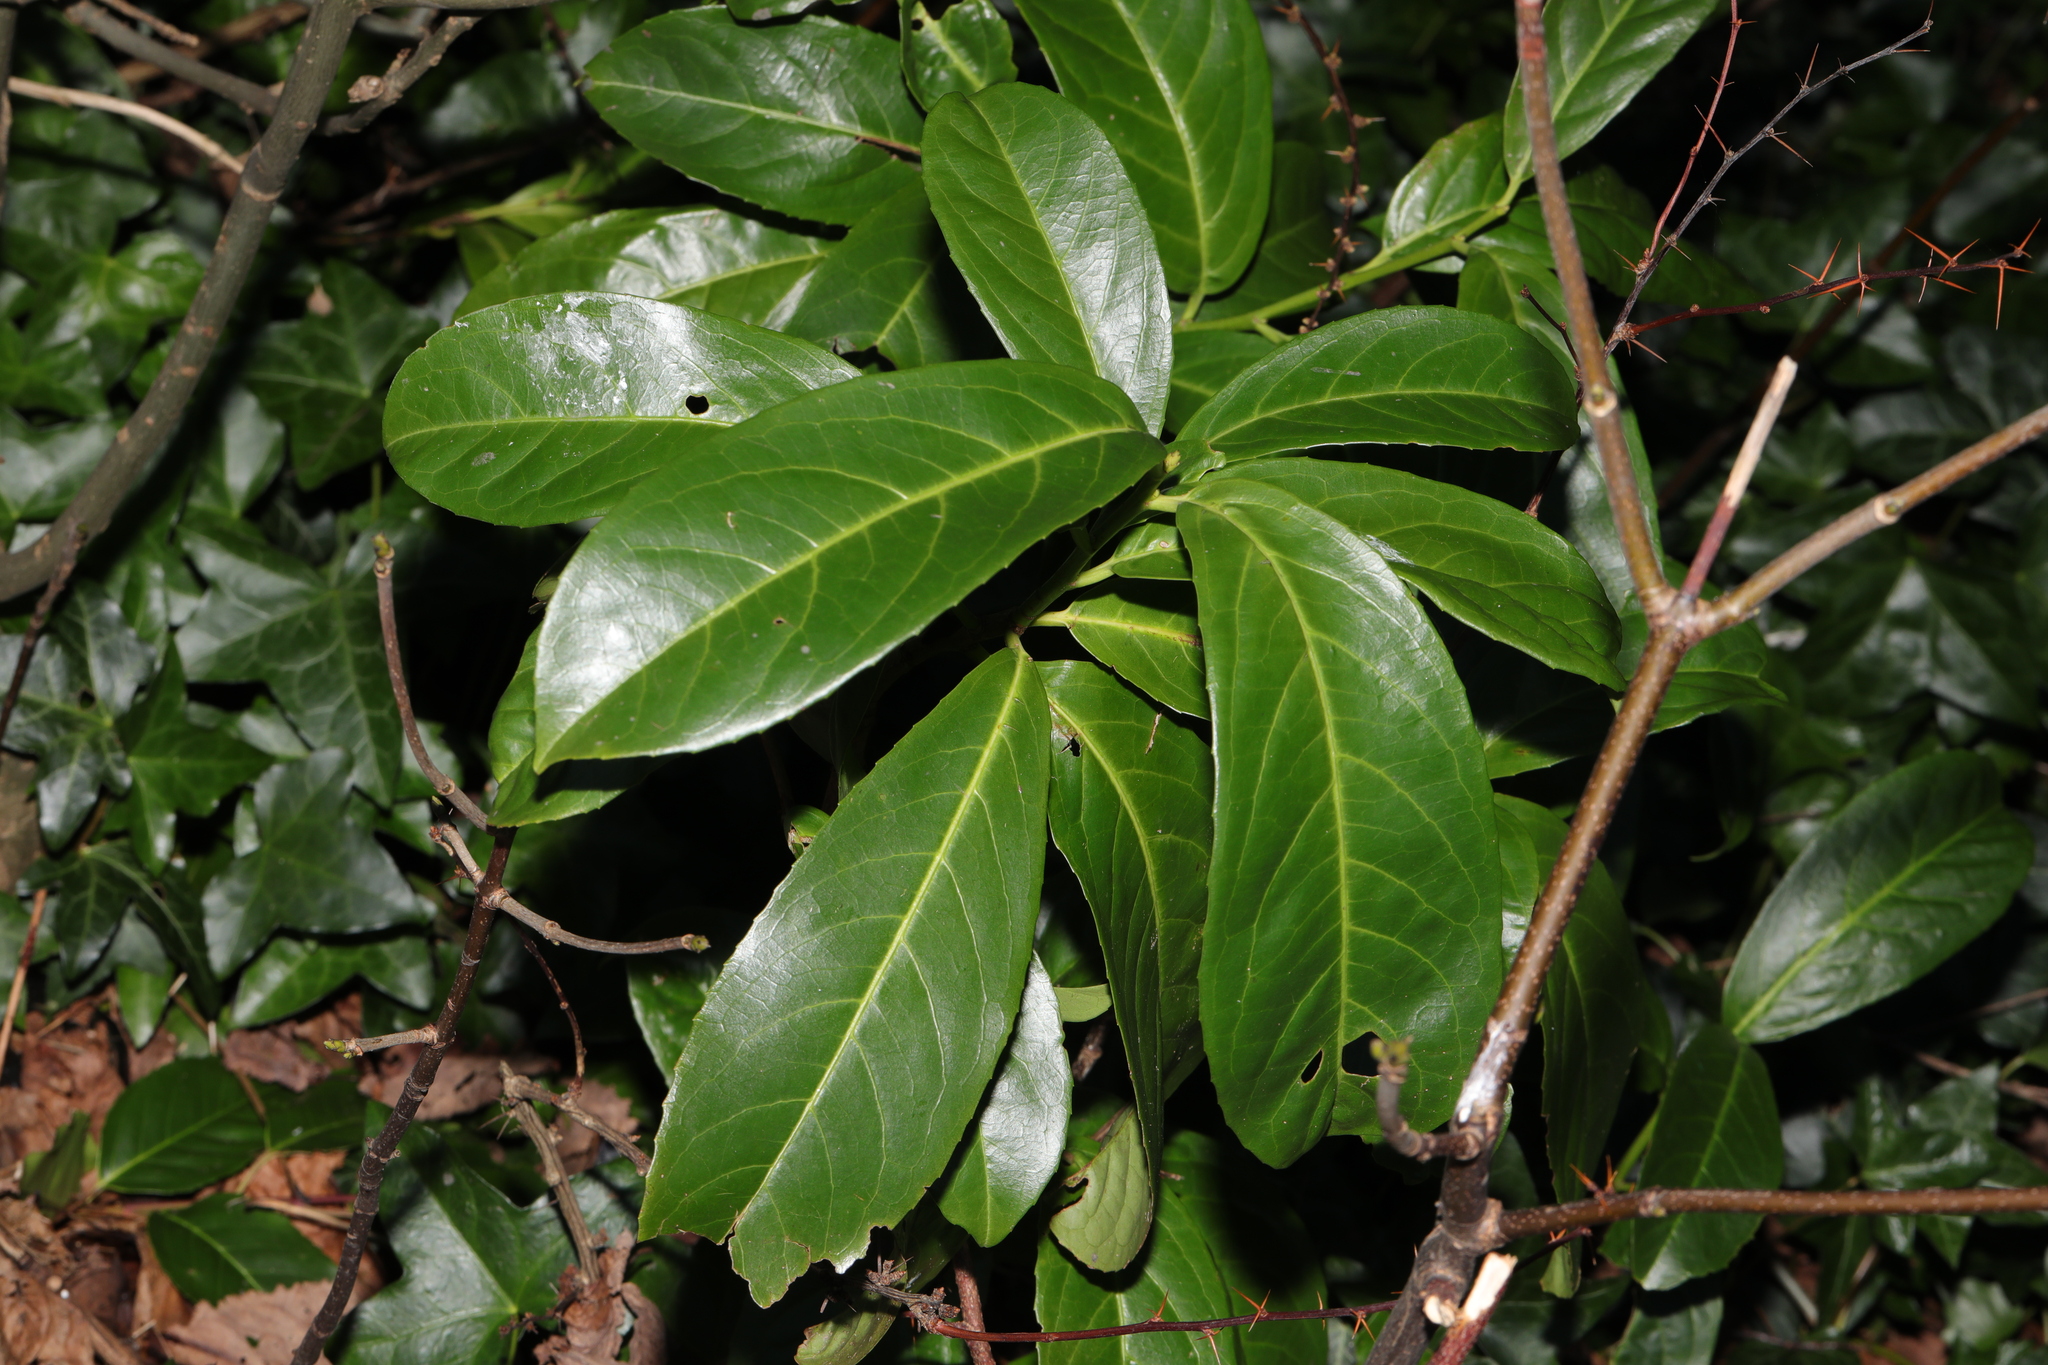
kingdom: Plantae
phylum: Tracheophyta
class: Magnoliopsida
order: Rosales
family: Rosaceae
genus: Prunus
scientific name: Prunus laurocerasus
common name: Cherry laurel
